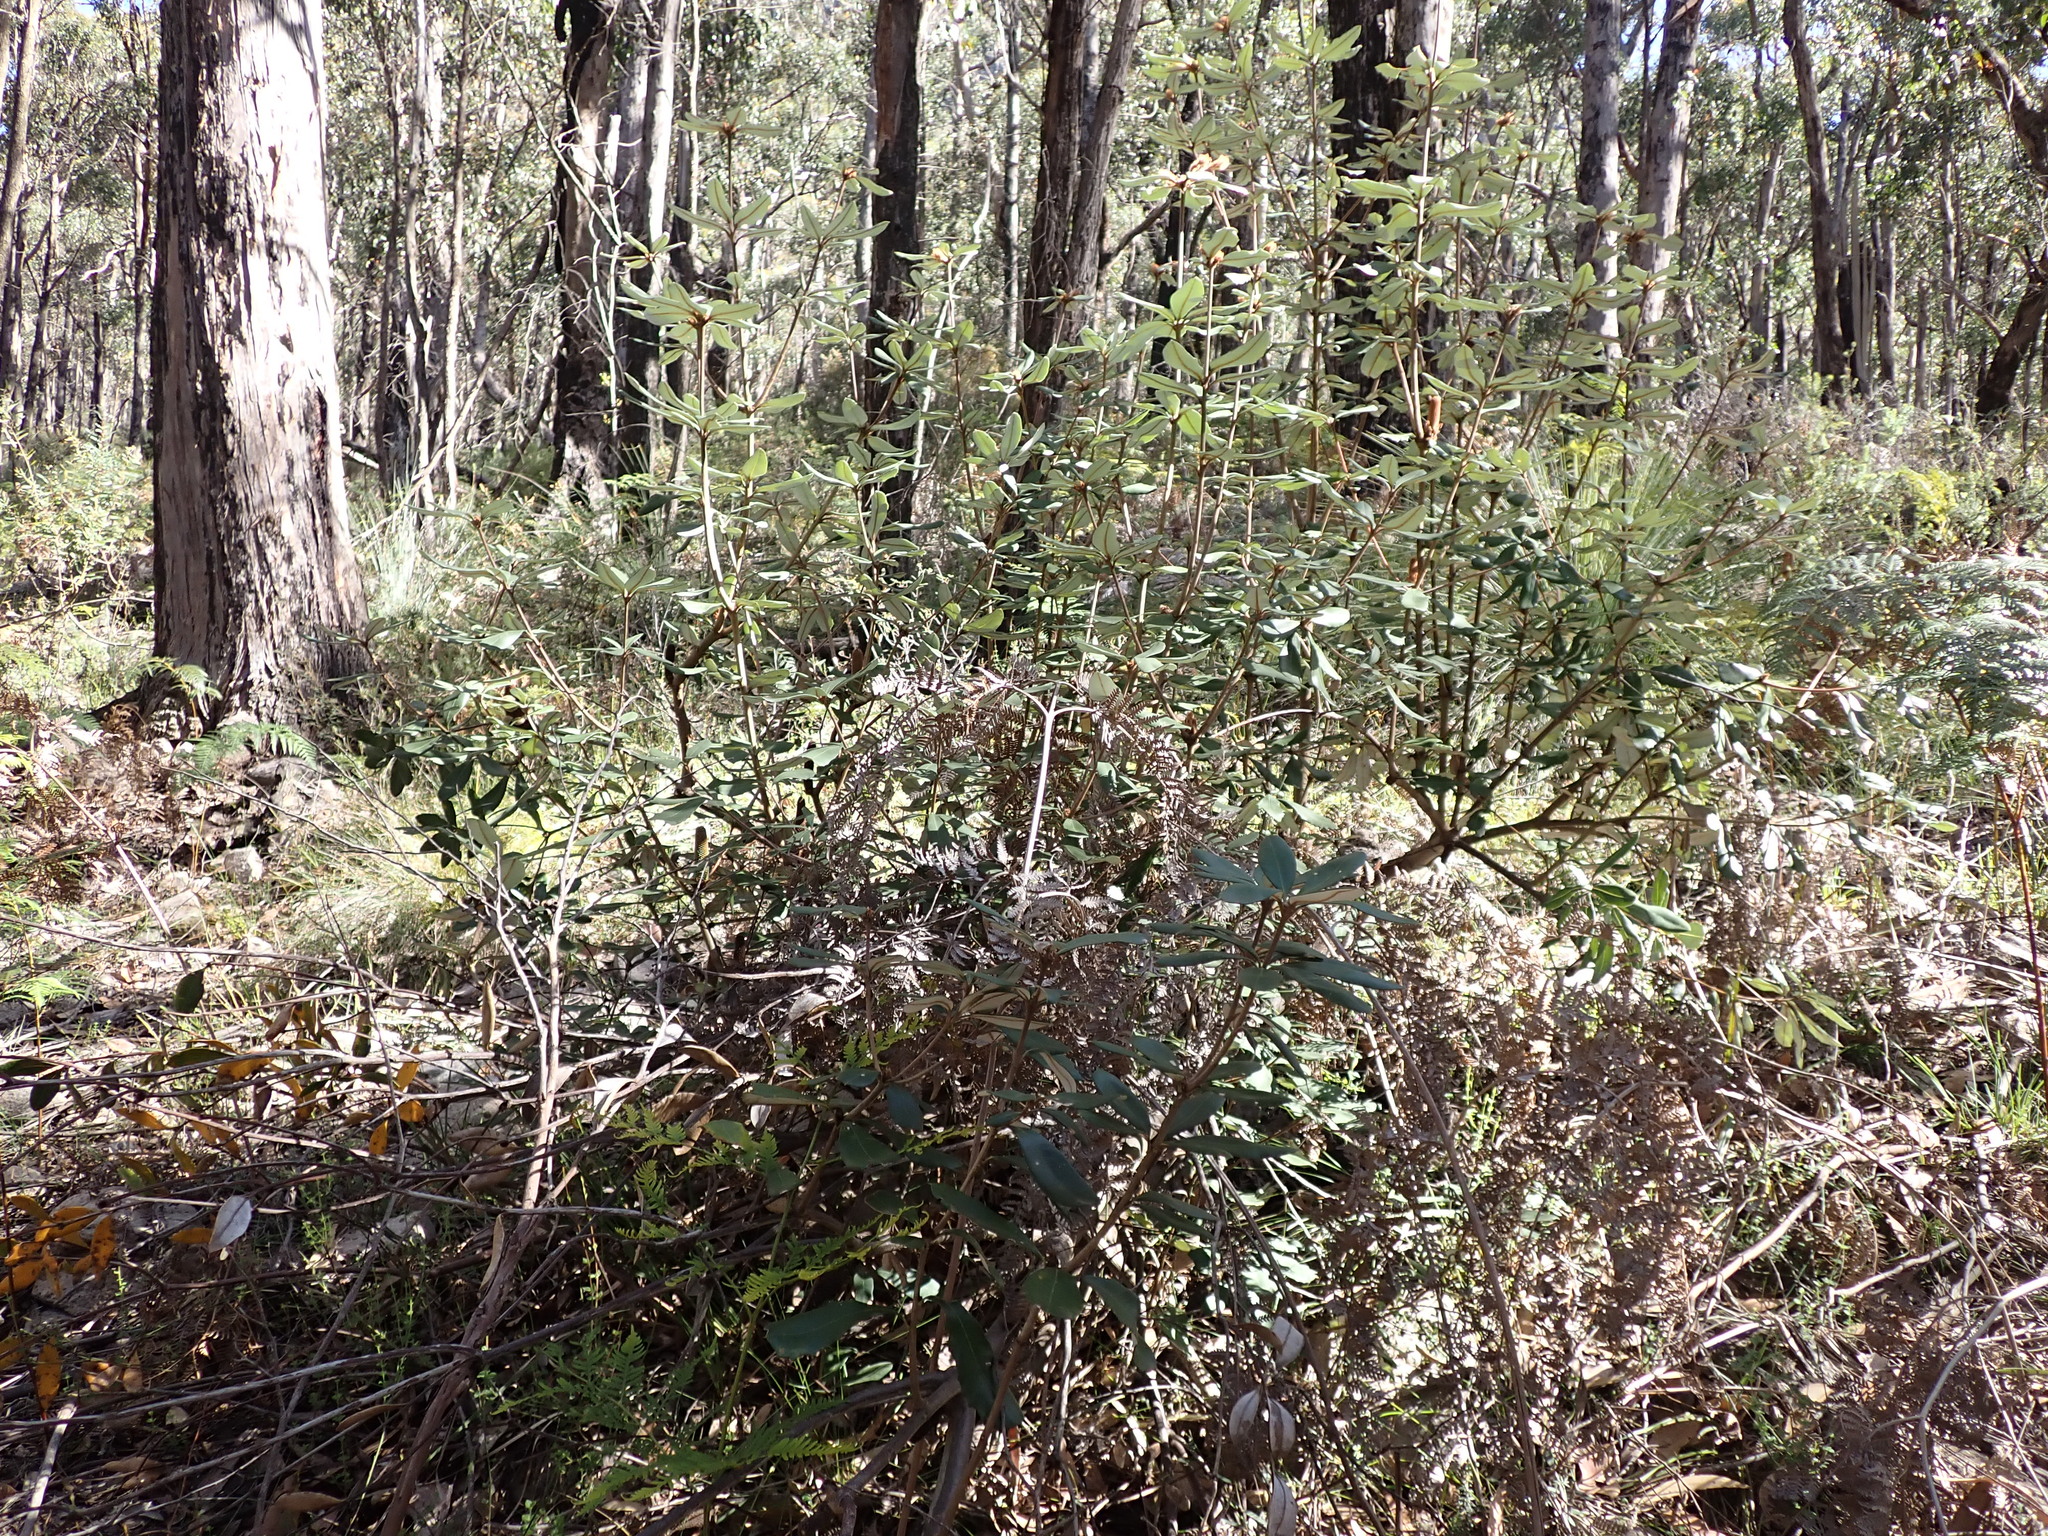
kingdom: Plantae
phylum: Tracheophyta
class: Magnoliopsida
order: Proteales
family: Proteaceae
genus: Banksia
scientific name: Banksia saxicola
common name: Grampians banksia
